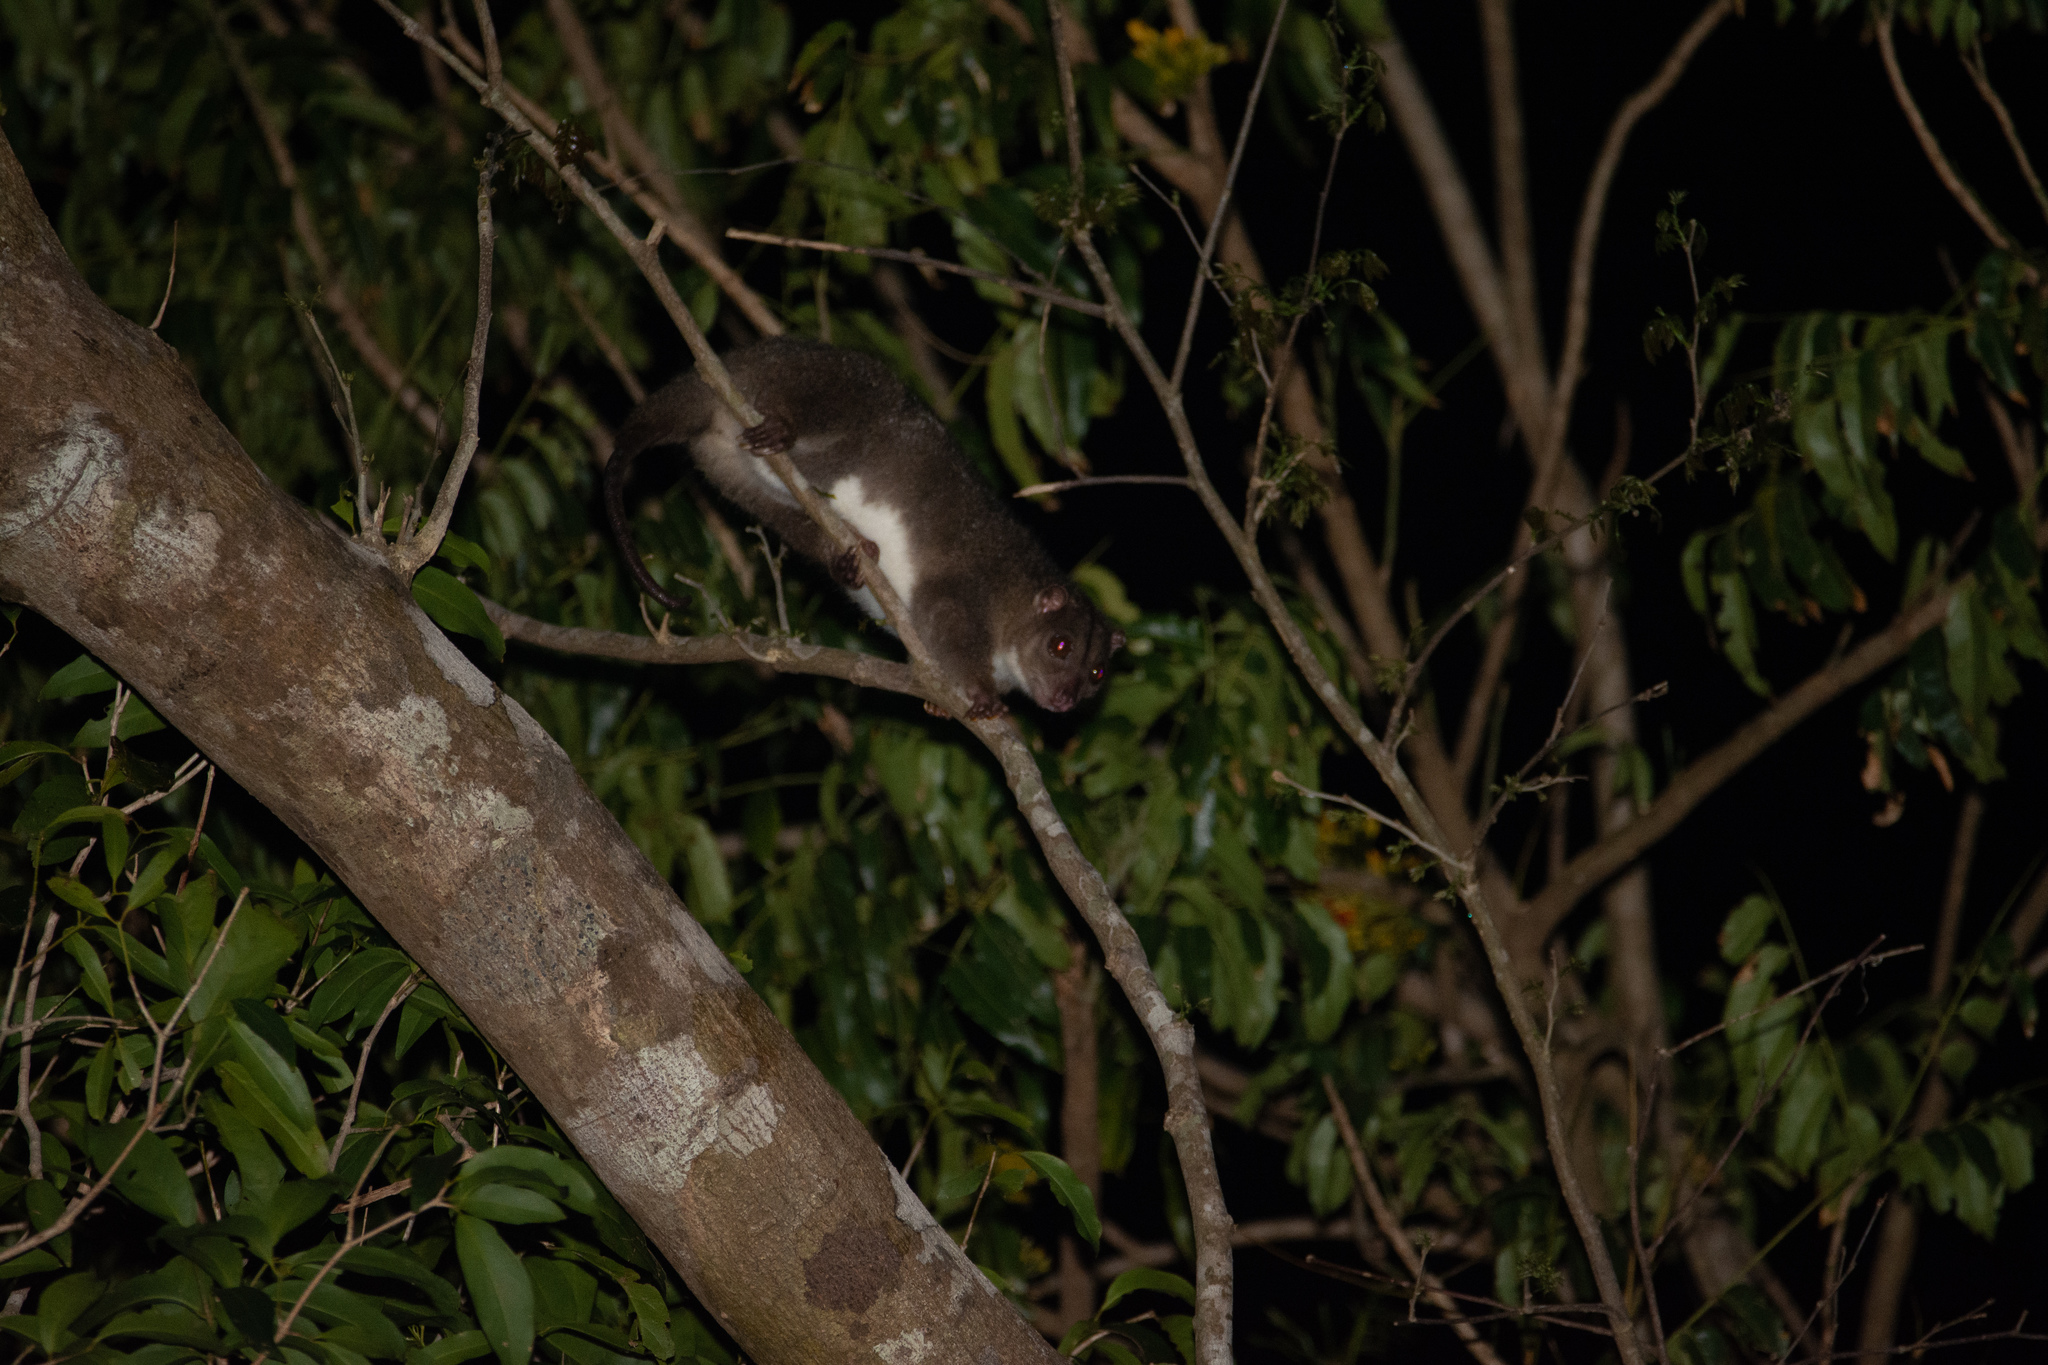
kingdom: Animalia
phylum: Chordata
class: Mammalia
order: Diprotodontia
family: Phalangeridae
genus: Phalanger
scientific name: Phalanger mimicus
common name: Southern common cuscus
